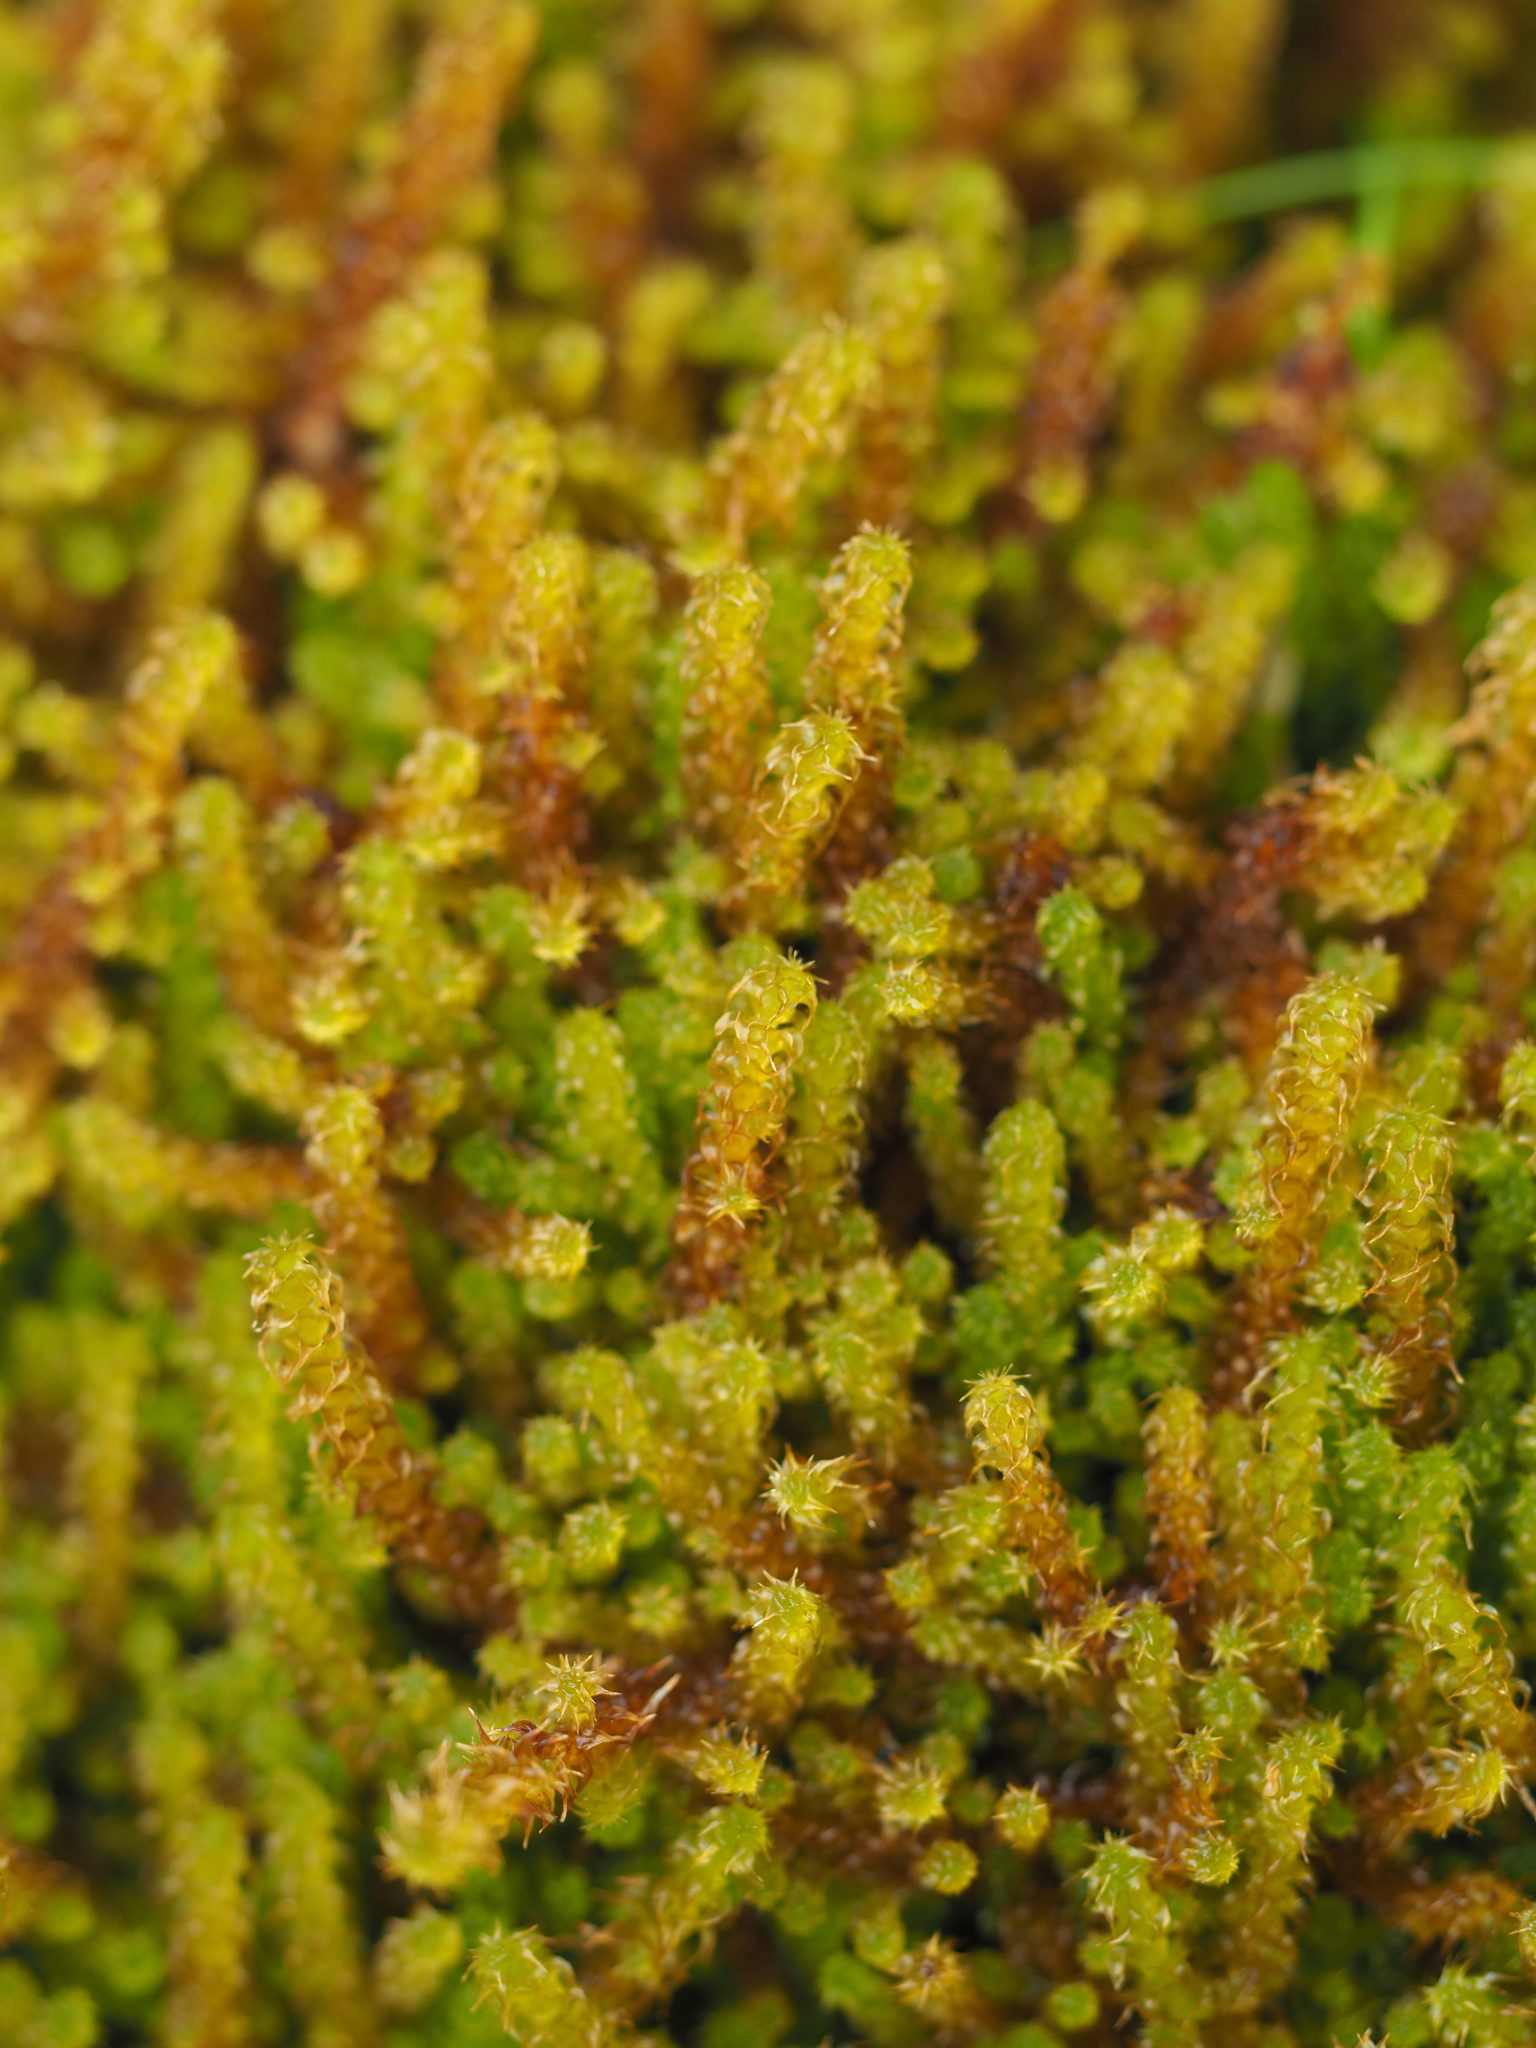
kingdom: Plantae
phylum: Bryophyta
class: Bryopsida
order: Hypnales
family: Hylocomiaceae
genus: Rhytidiadelphus
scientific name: Rhytidiadelphus squarrosus
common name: Springy turf-moss
